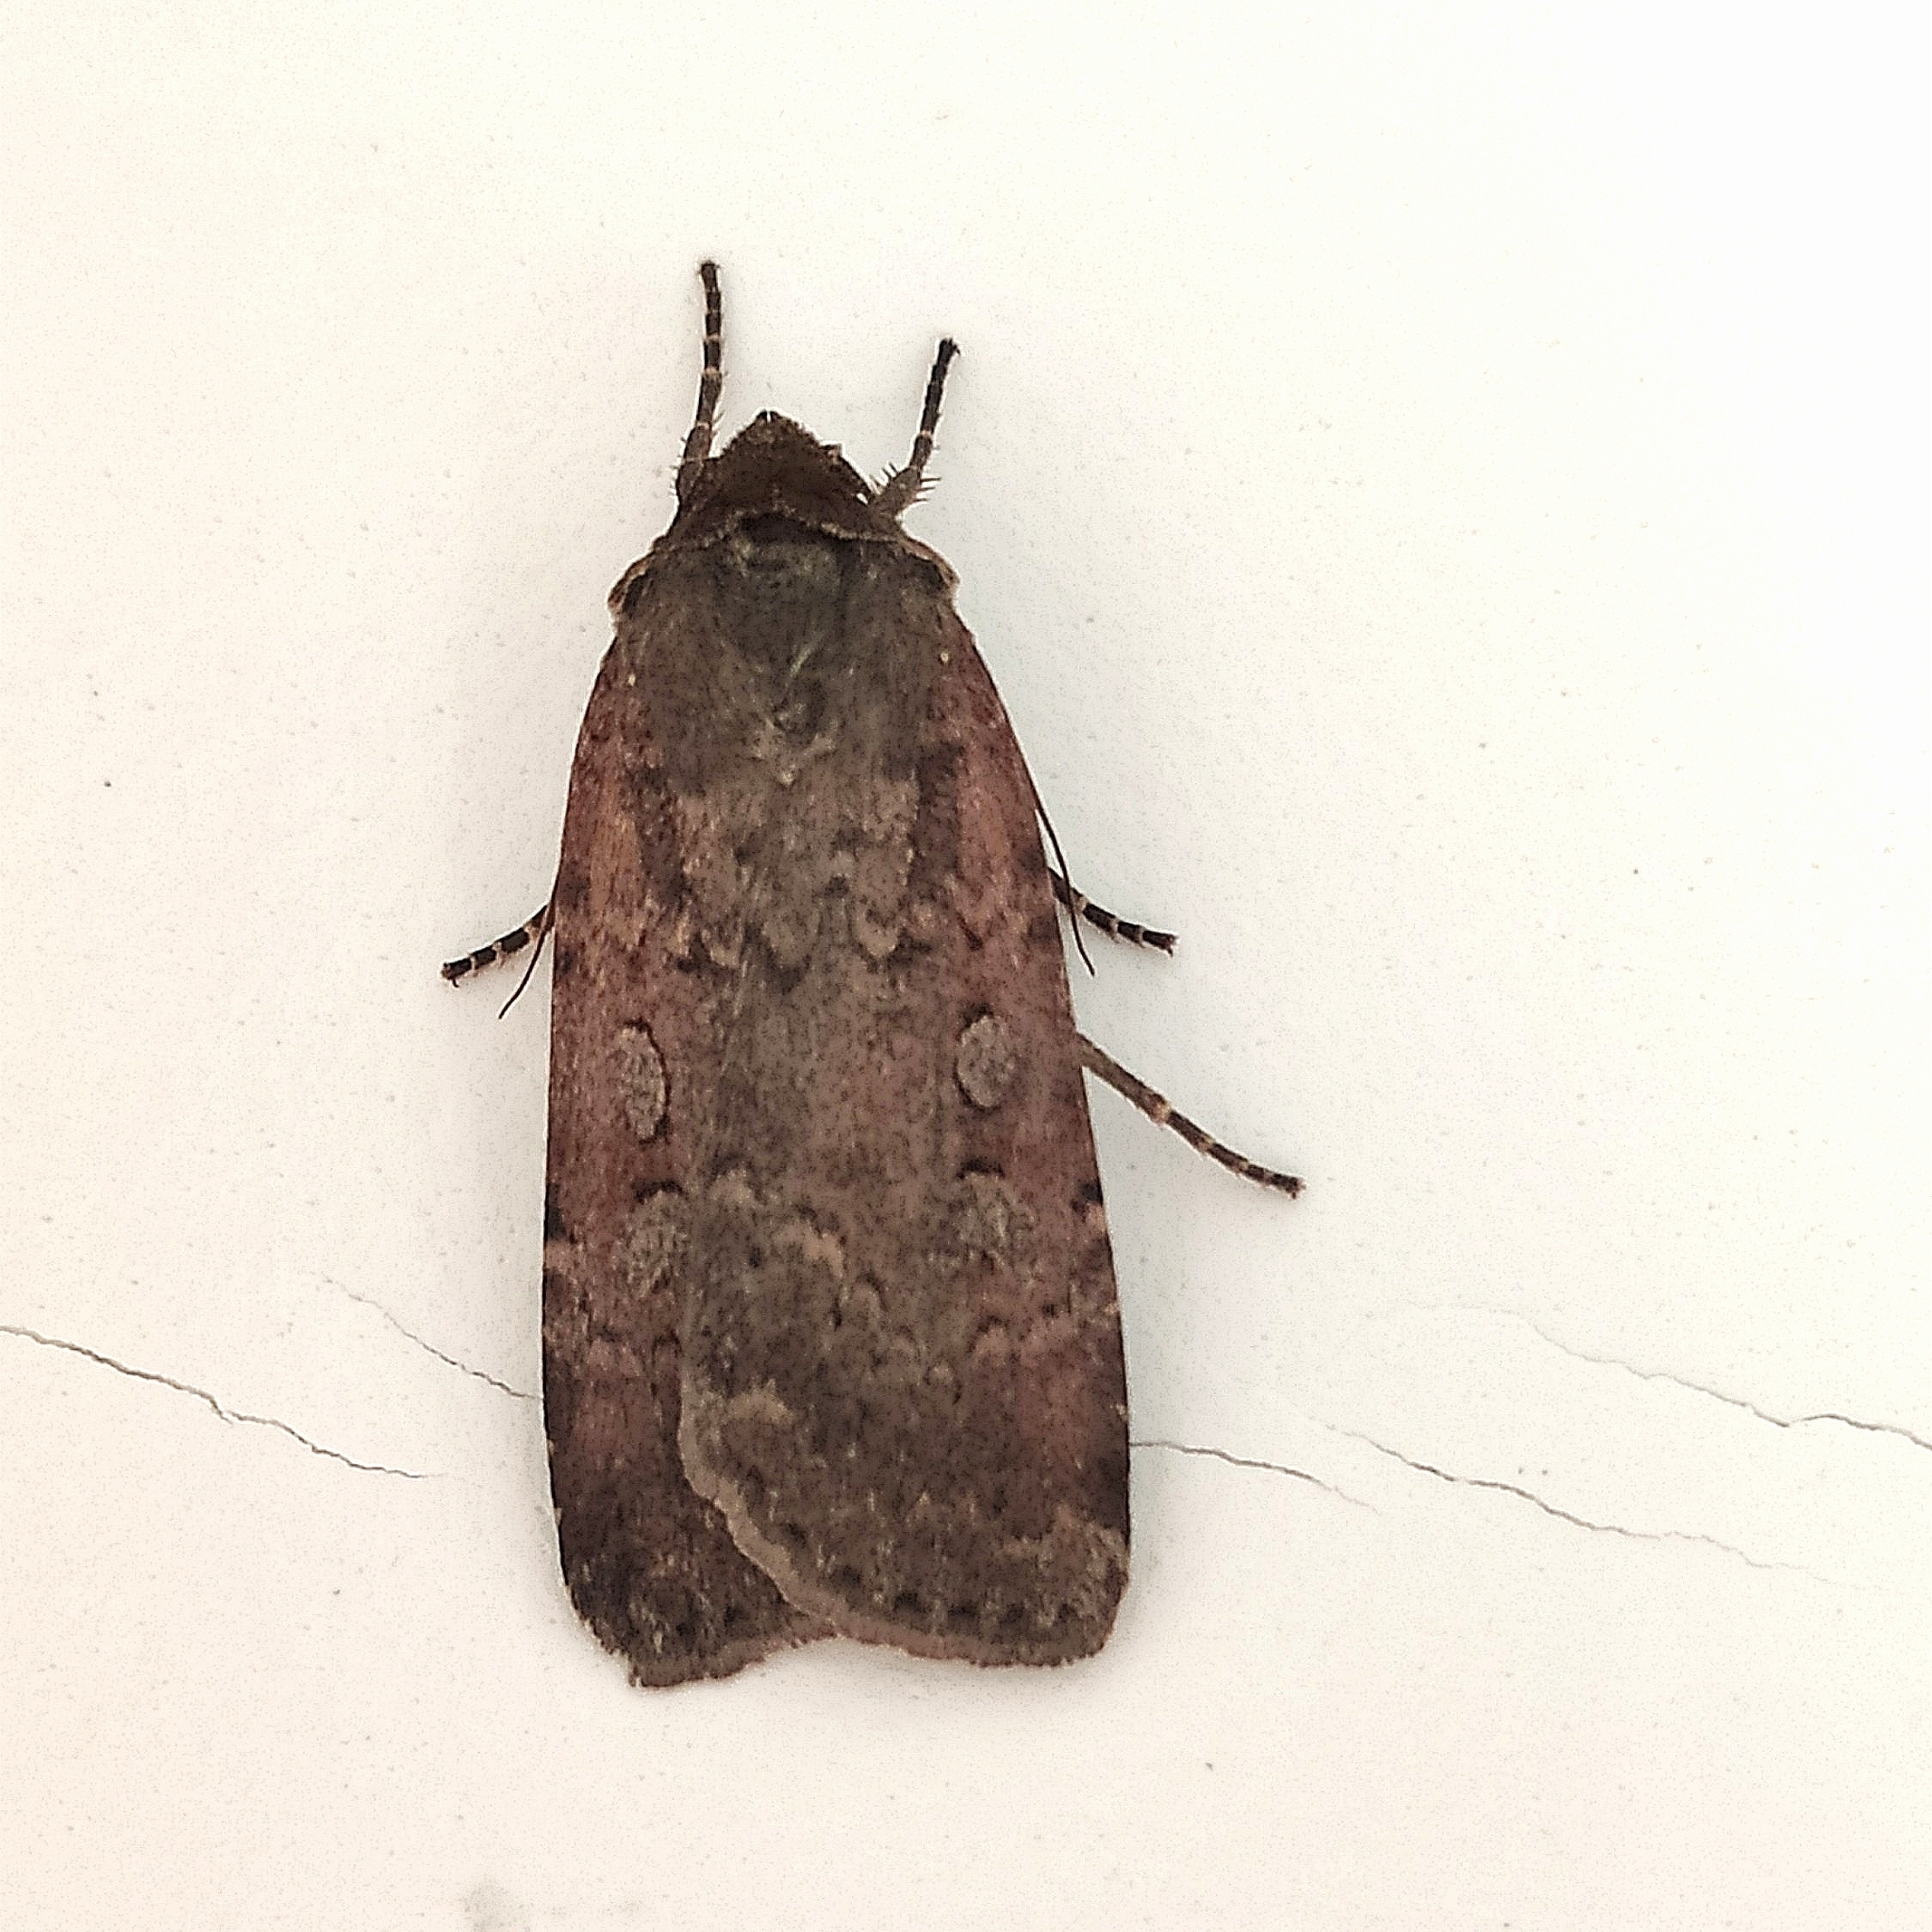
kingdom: Animalia
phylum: Arthropoda
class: Insecta
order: Lepidoptera
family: Noctuidae
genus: Graphiphora
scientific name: Graphiphora augur
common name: Double dart
